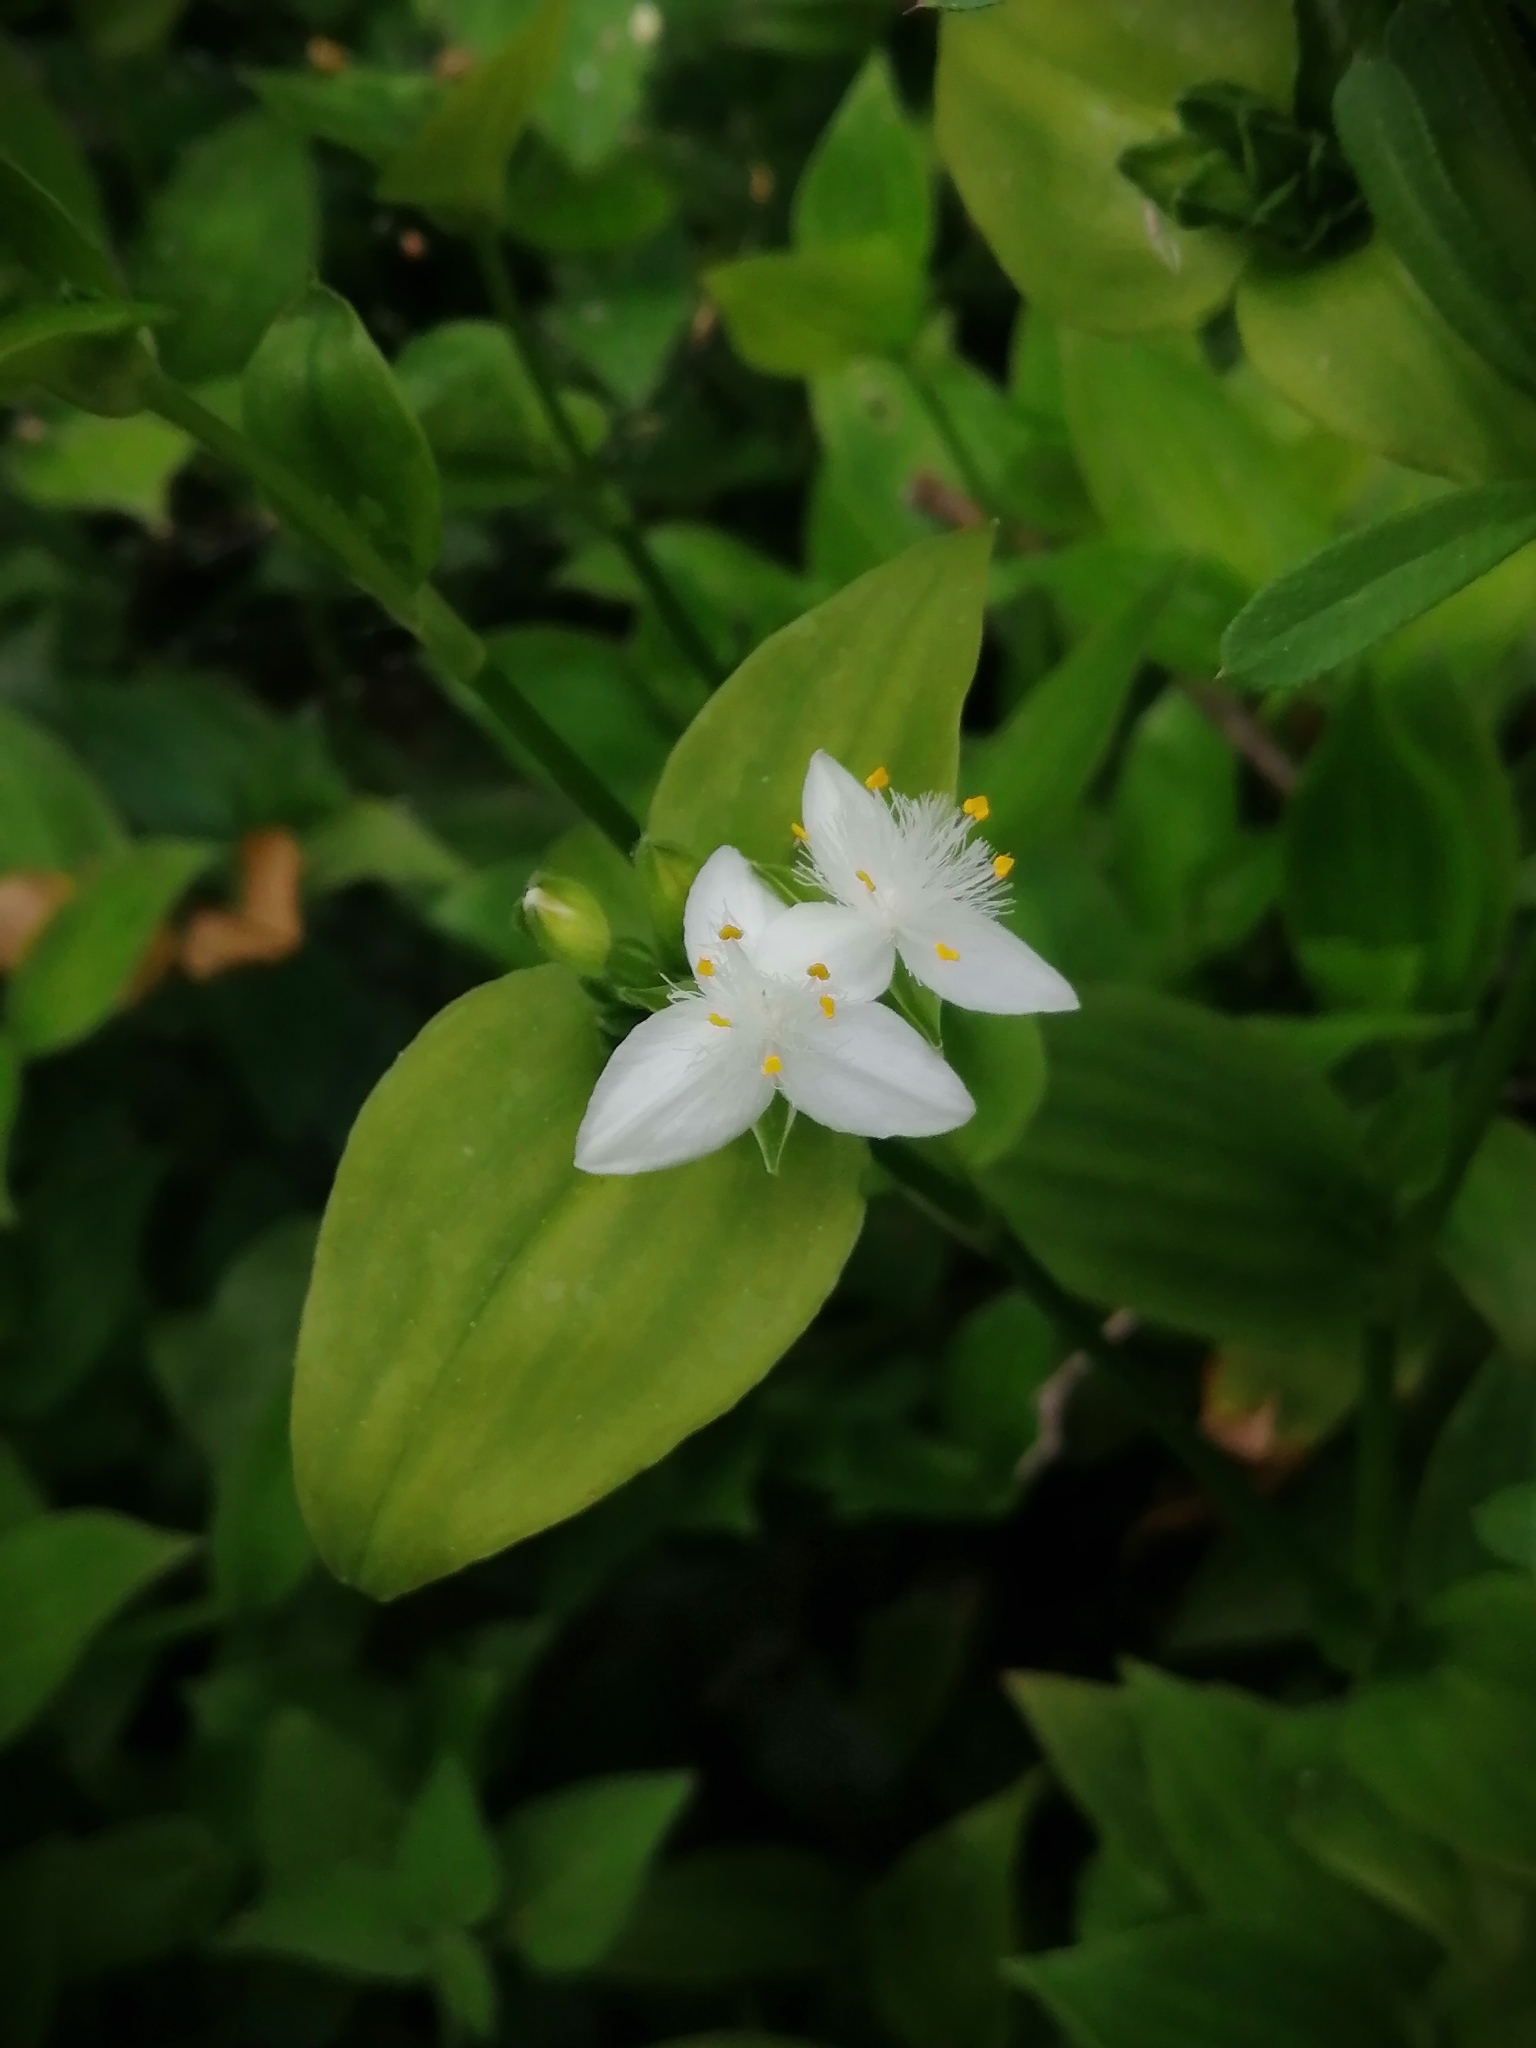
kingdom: Plantae
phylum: Tracheophyta
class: Liliopsida
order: Commelinales
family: Commelinaceae
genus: Tradescantia
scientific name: Tradescantia fluminensis
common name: Wandering-jew
